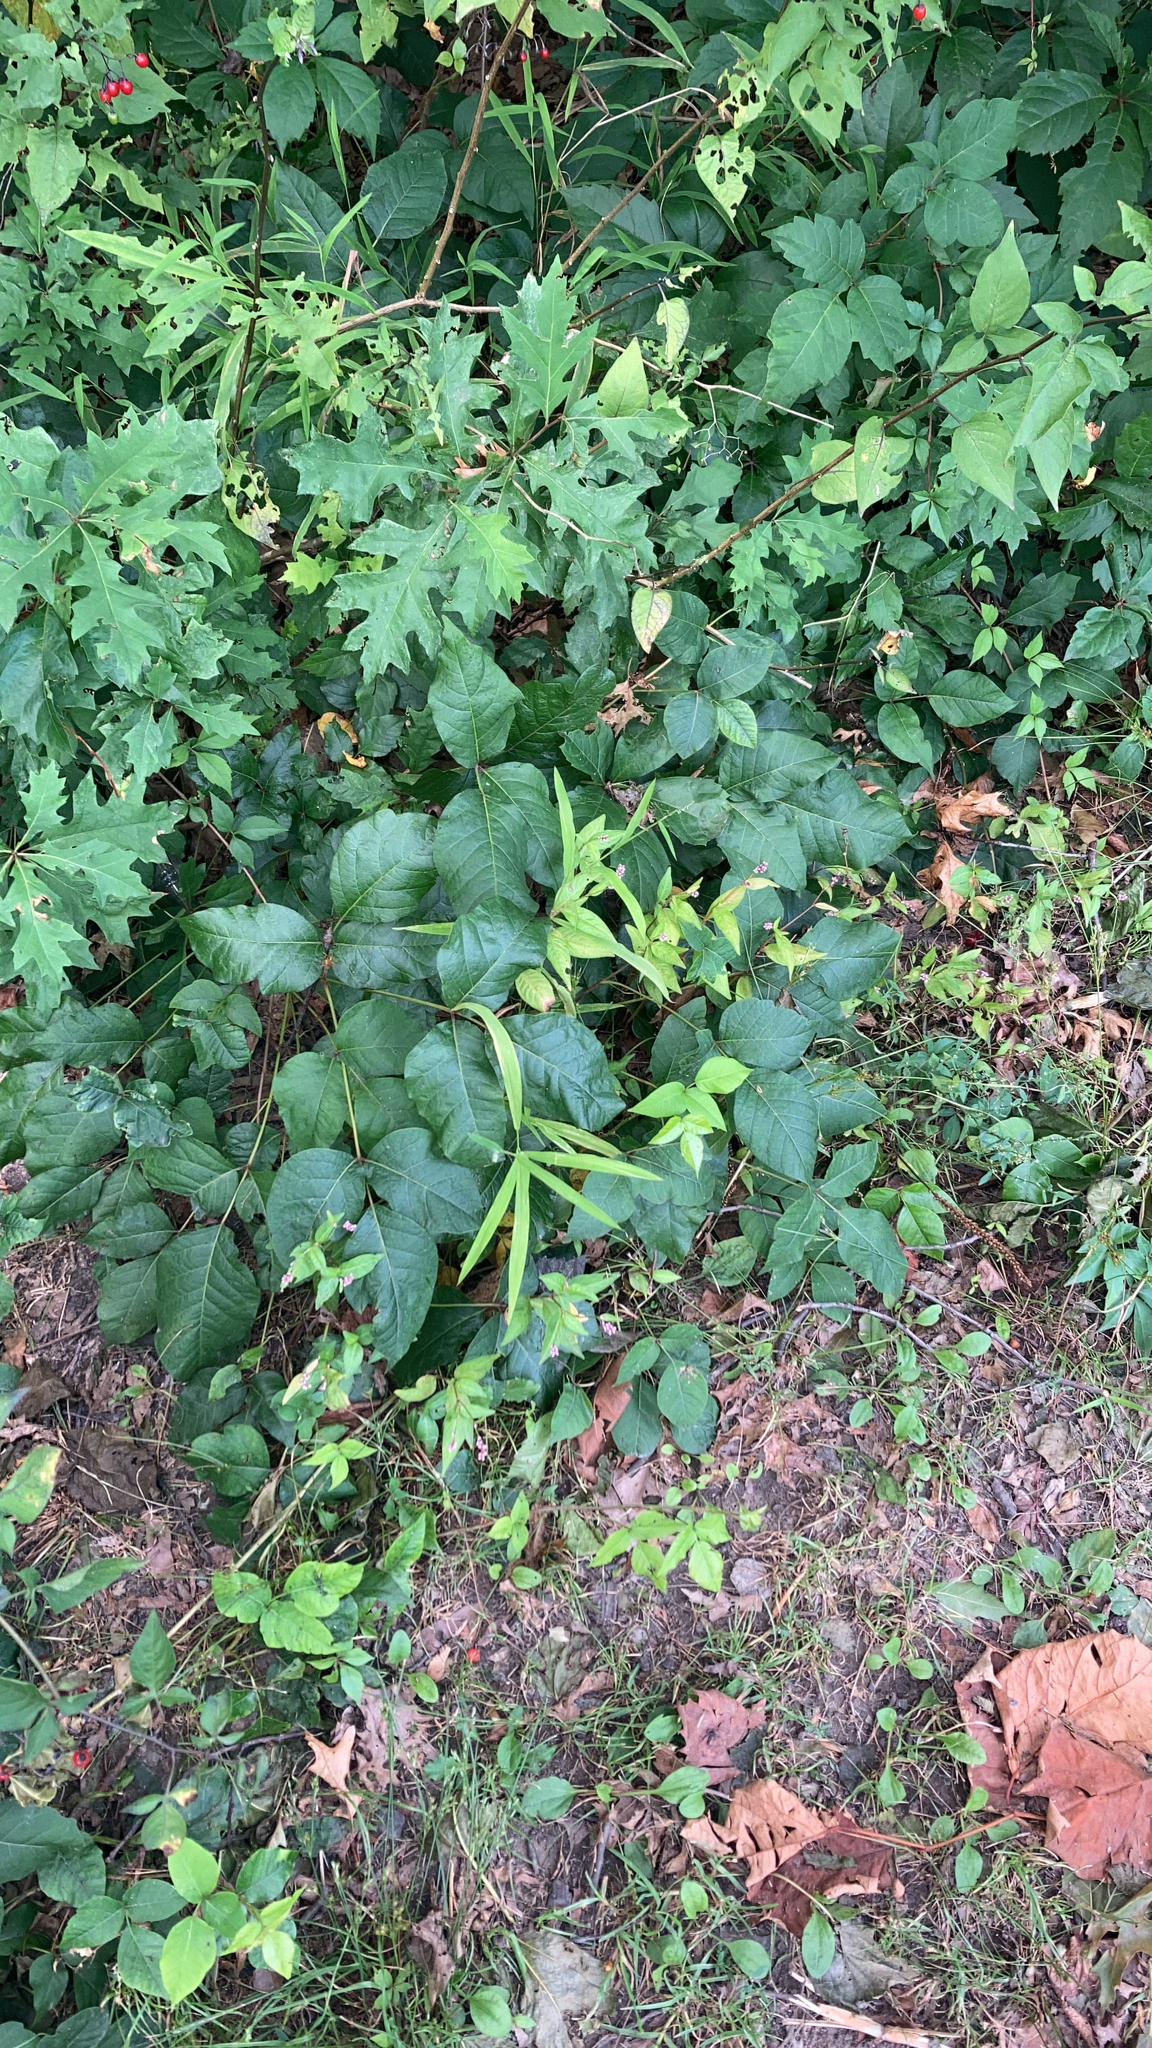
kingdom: Plantae
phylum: Tracheophyta
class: Magnoliopsida
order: Sapindales
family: Anacardiaceae
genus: Toxicodendron
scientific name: Toxicodendron radicans
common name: Poison ivy
